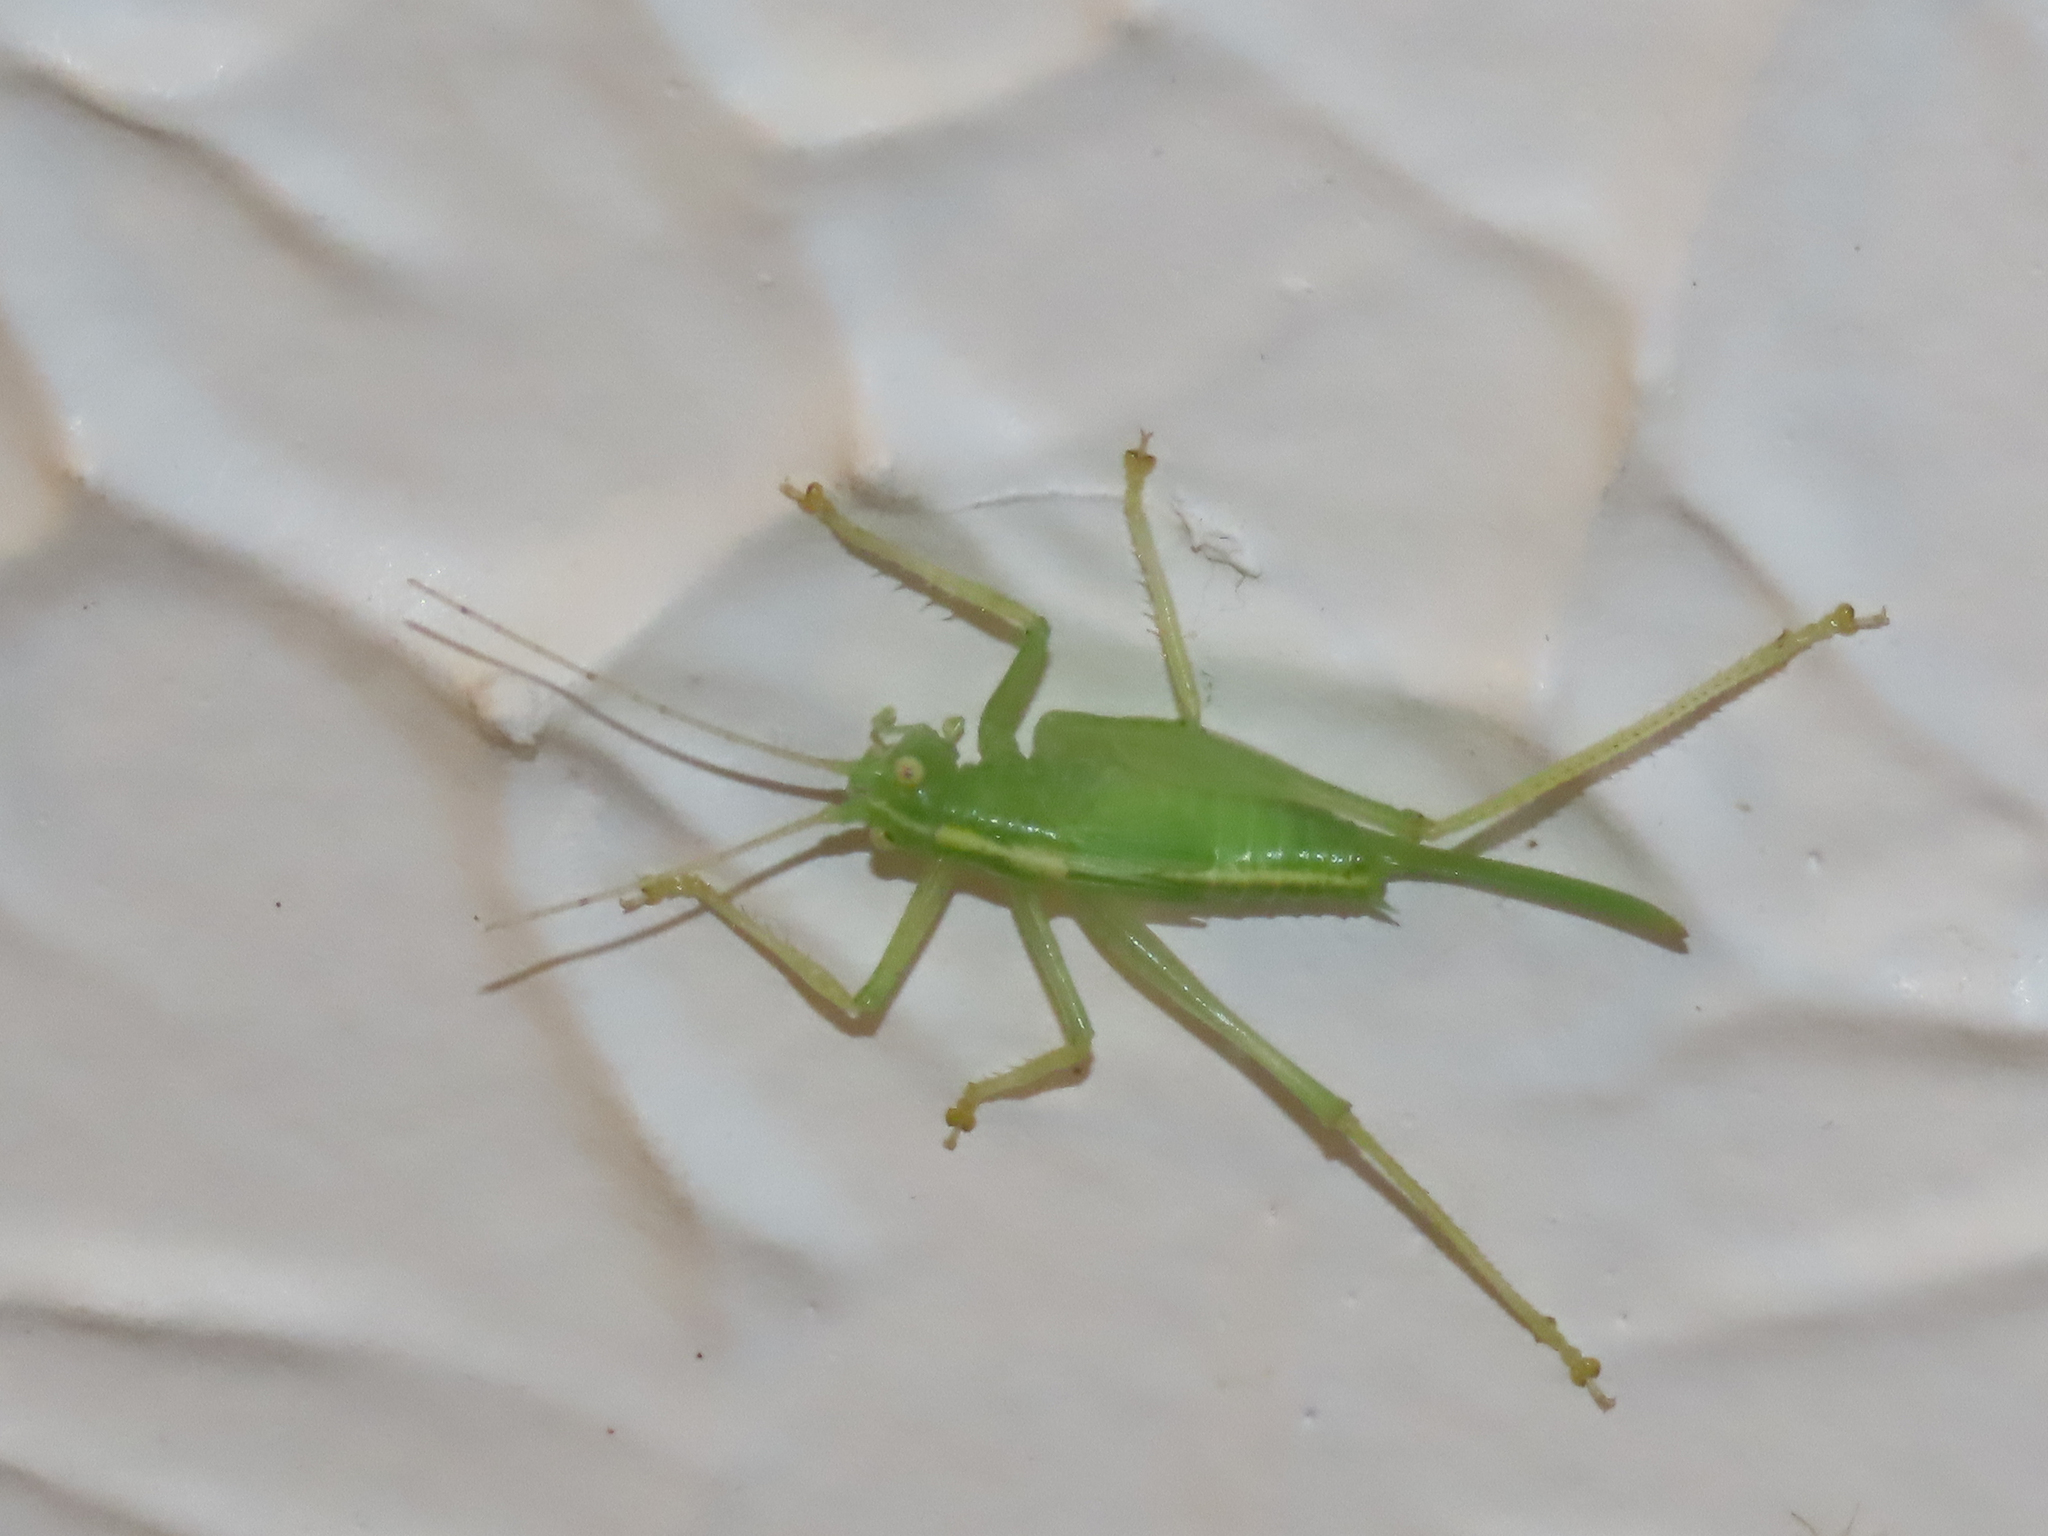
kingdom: Animalia
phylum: Arthropoda
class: Insecta
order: Orthoptera
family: Tettigoniidae
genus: Meconema
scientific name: Meconema thalassinum
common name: Oak bush-cricket
